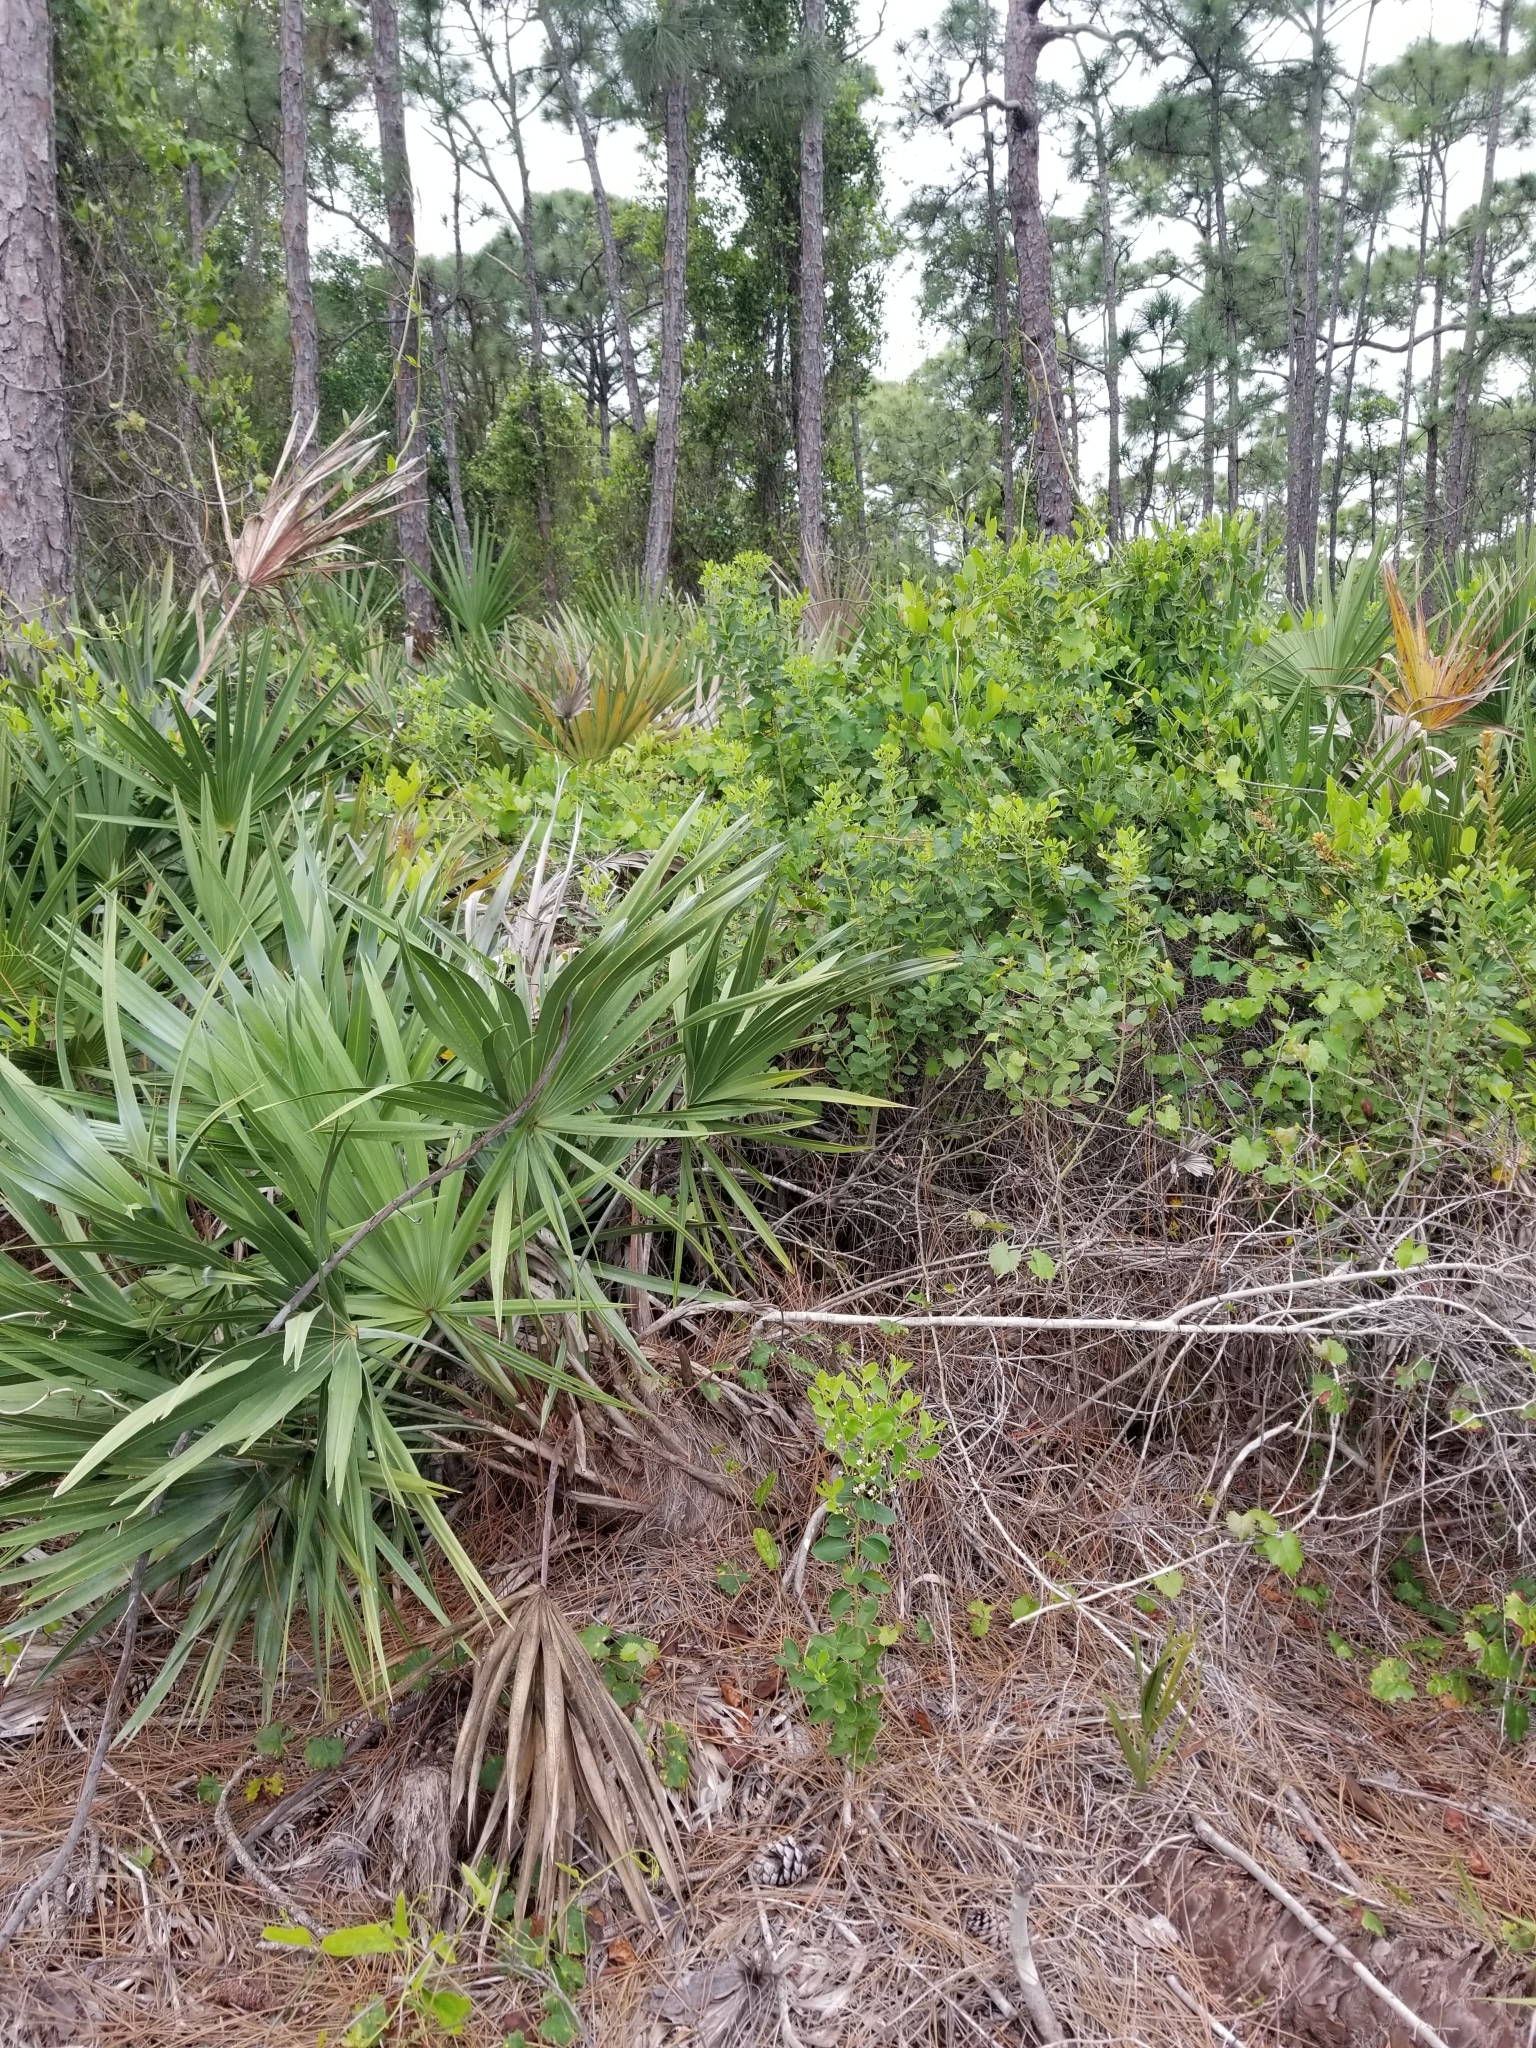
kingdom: Plantae
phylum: Tracheophyta
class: Magnoliopsida
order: Aquifoliales
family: Aquifoliaceae
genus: Ilex
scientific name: Ilex glabra
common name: Bitter gallberry
